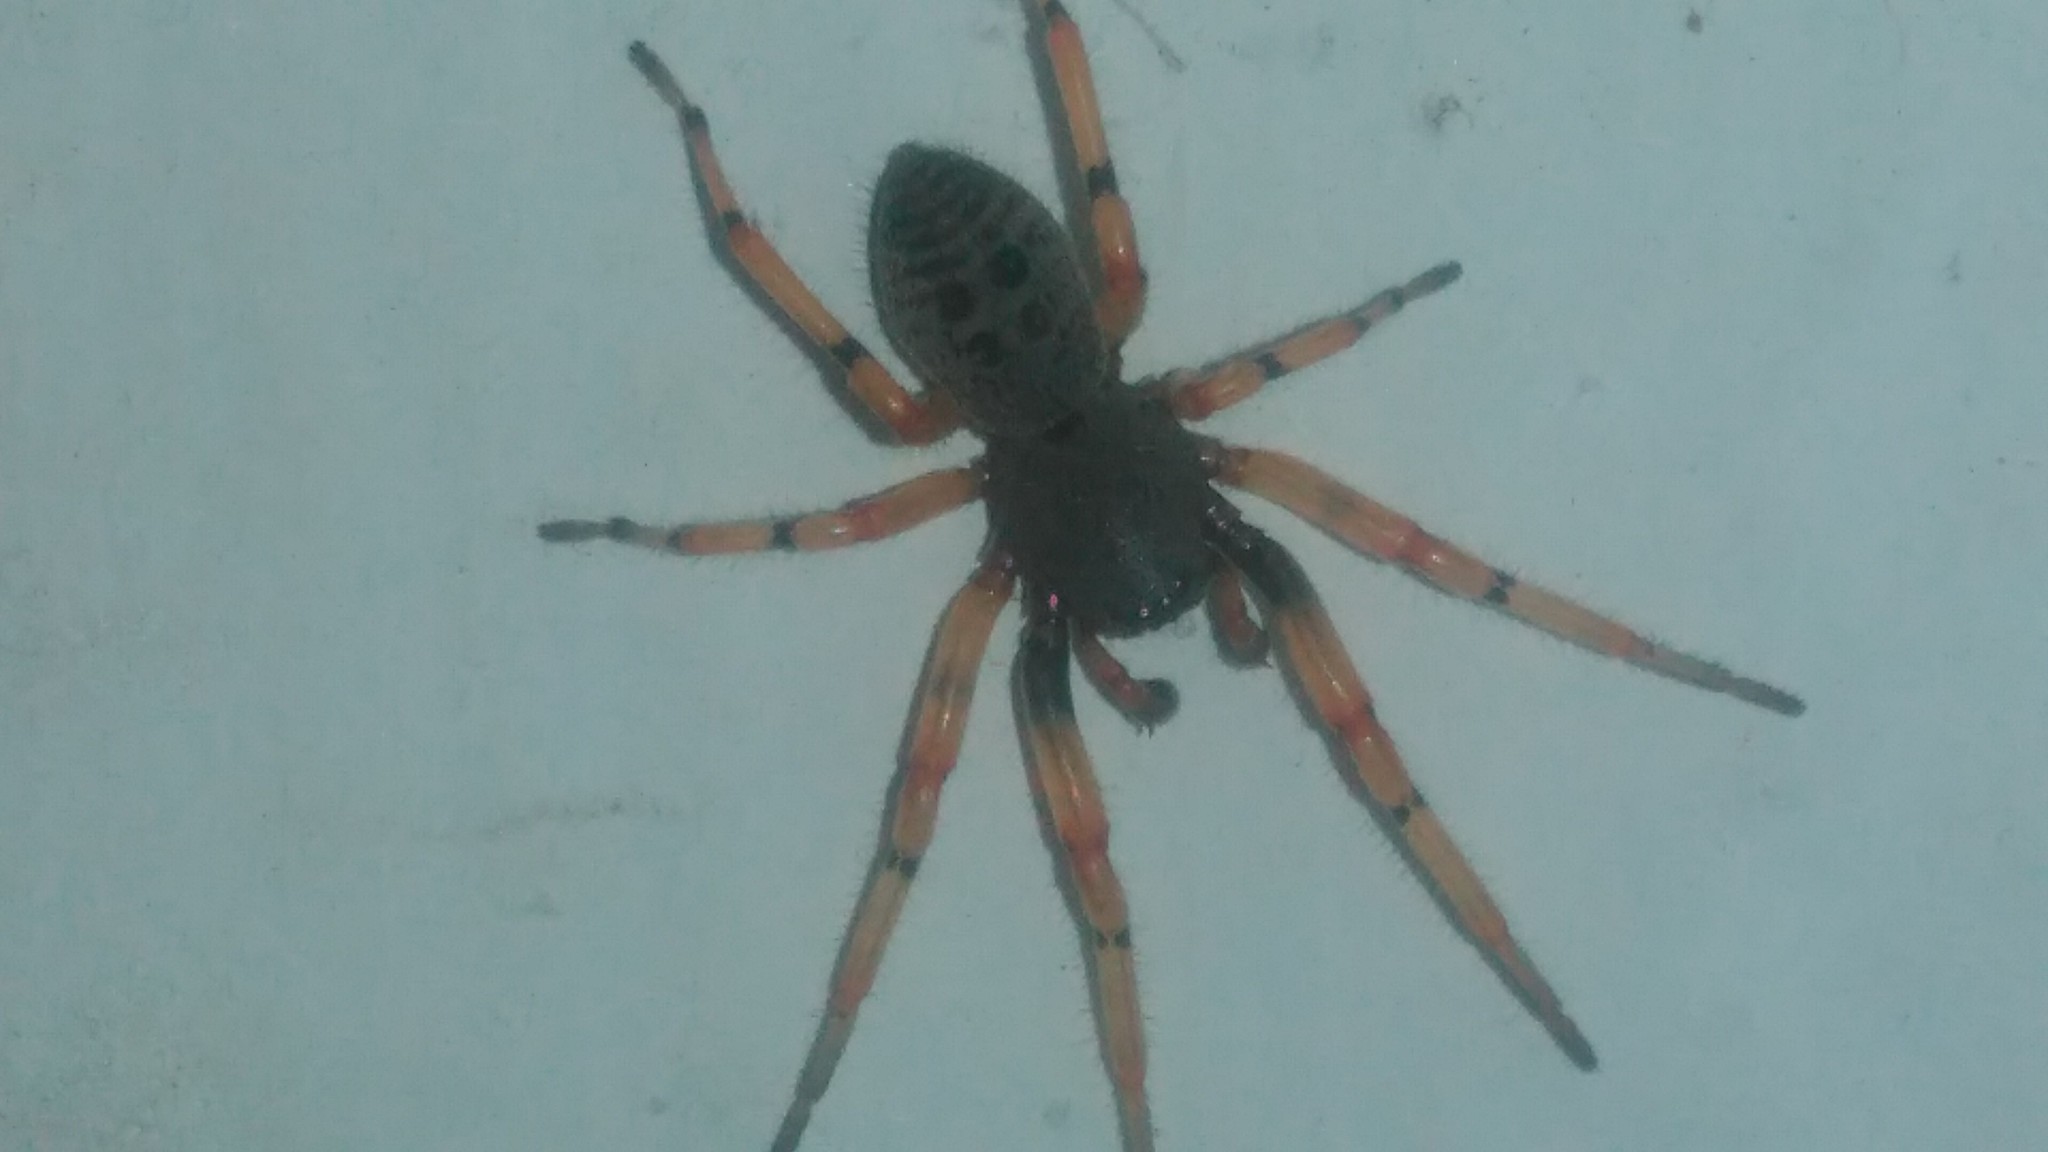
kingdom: Animalia
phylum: Arthropoda
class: Arachnida
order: Araneae
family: Trachelidae
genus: Trachelopachys
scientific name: Trachelopachys
